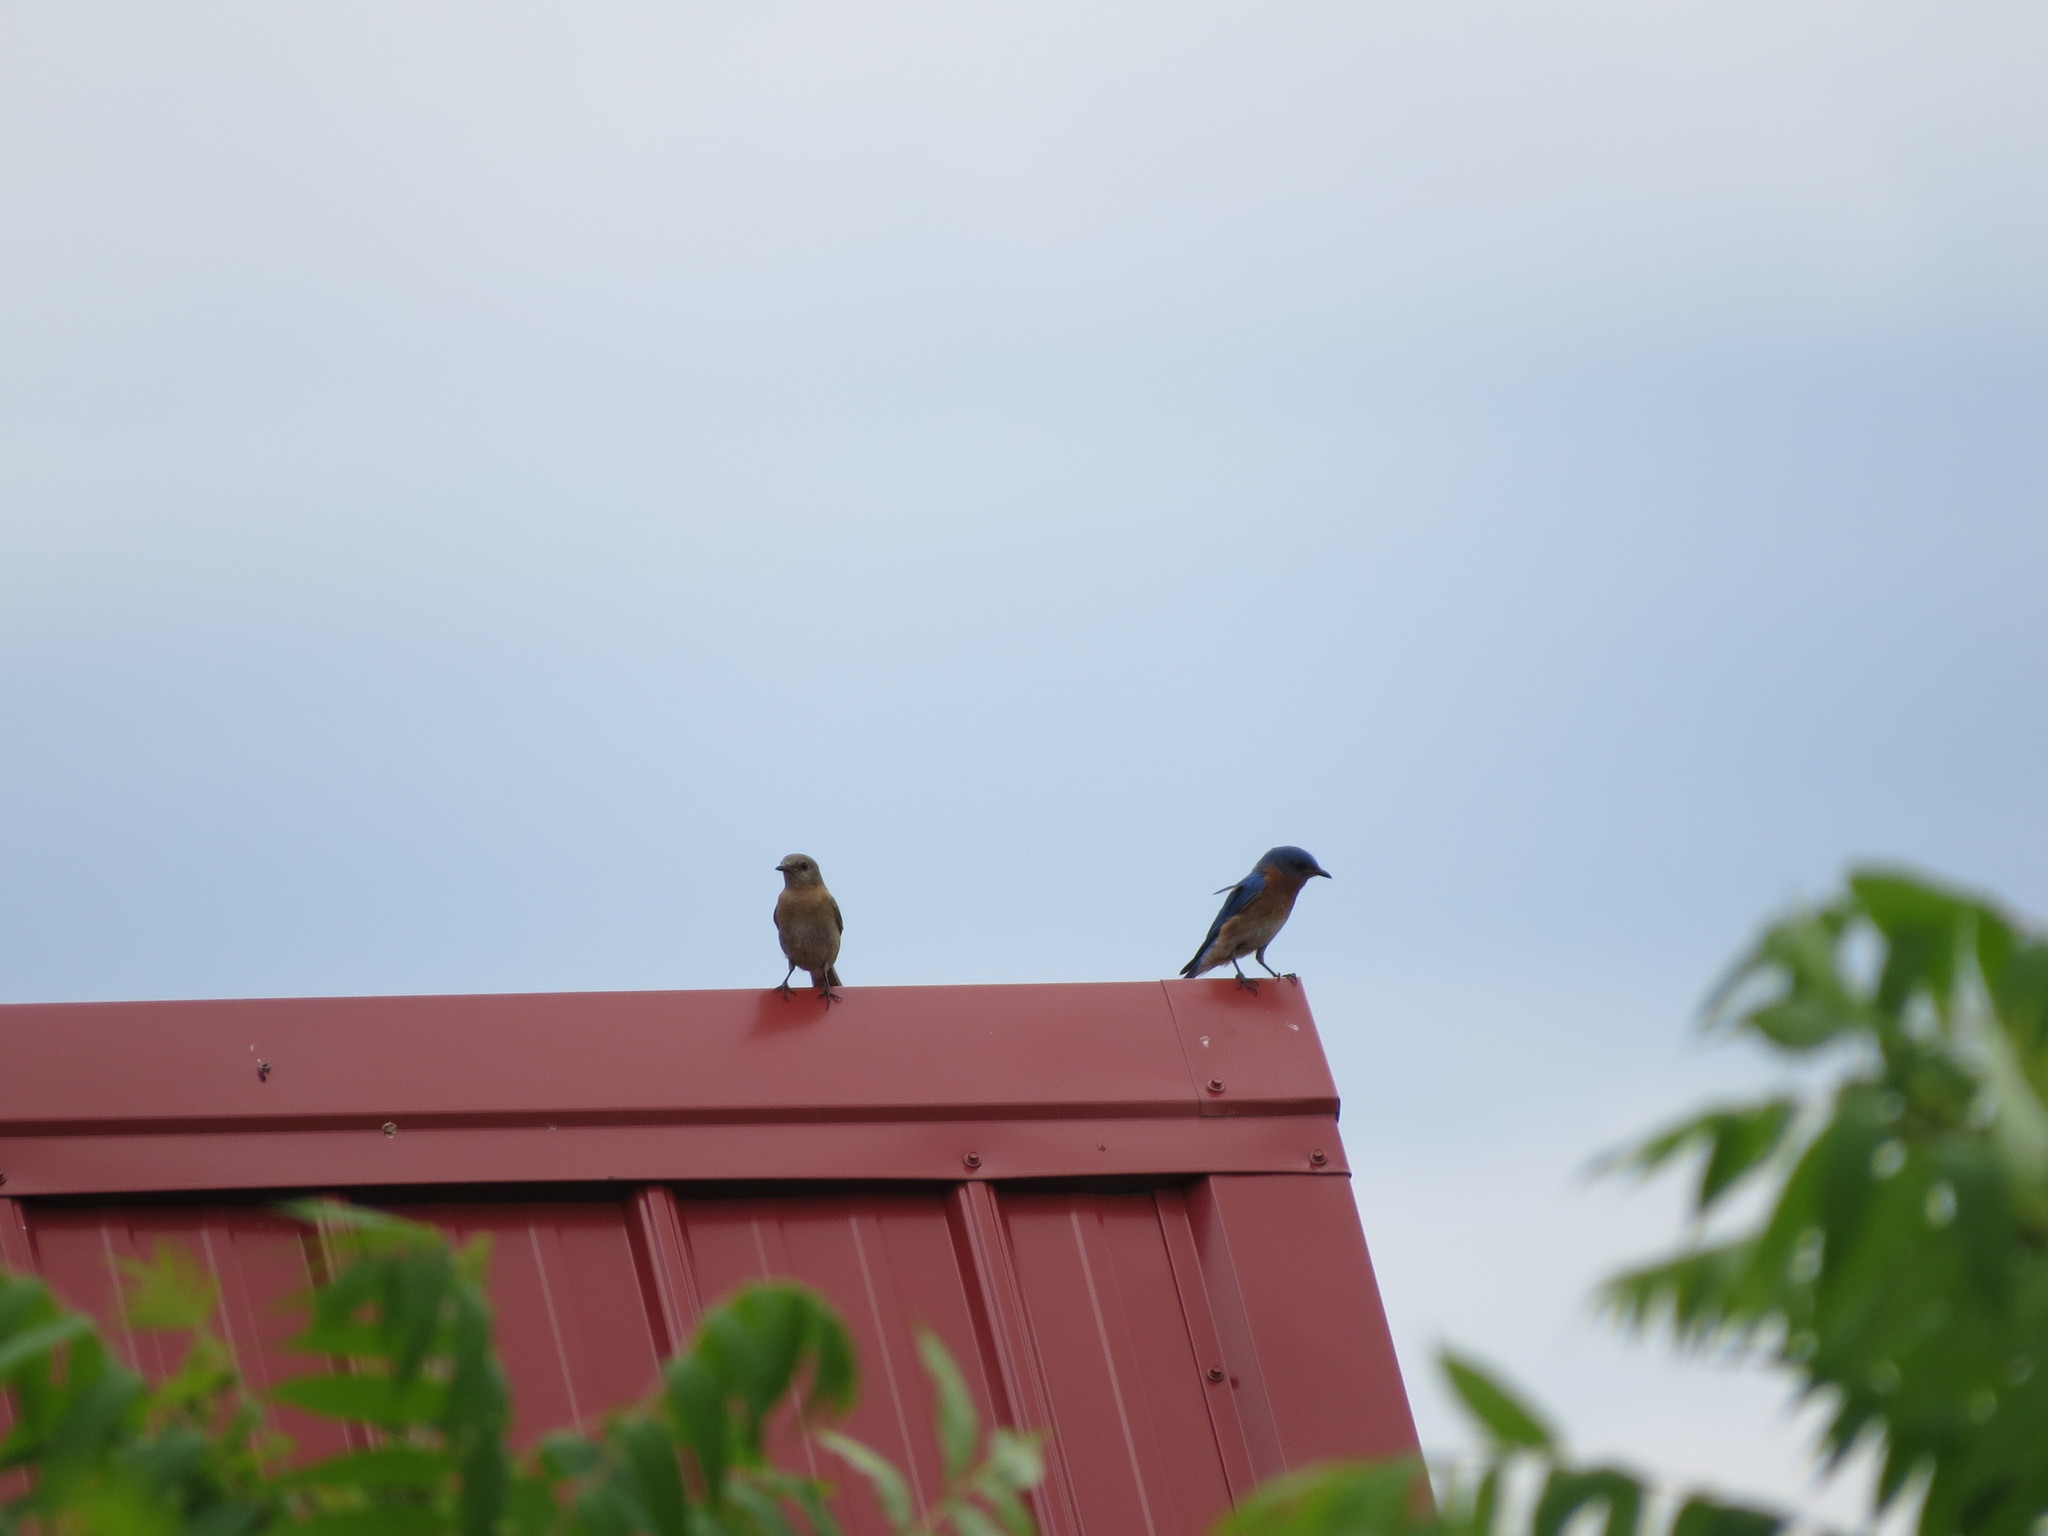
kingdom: Animalia
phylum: Chordata
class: Aves
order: Passeriformes
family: Turdidae
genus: Sialia
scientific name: Sialia sialis
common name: Eastern bluebird
